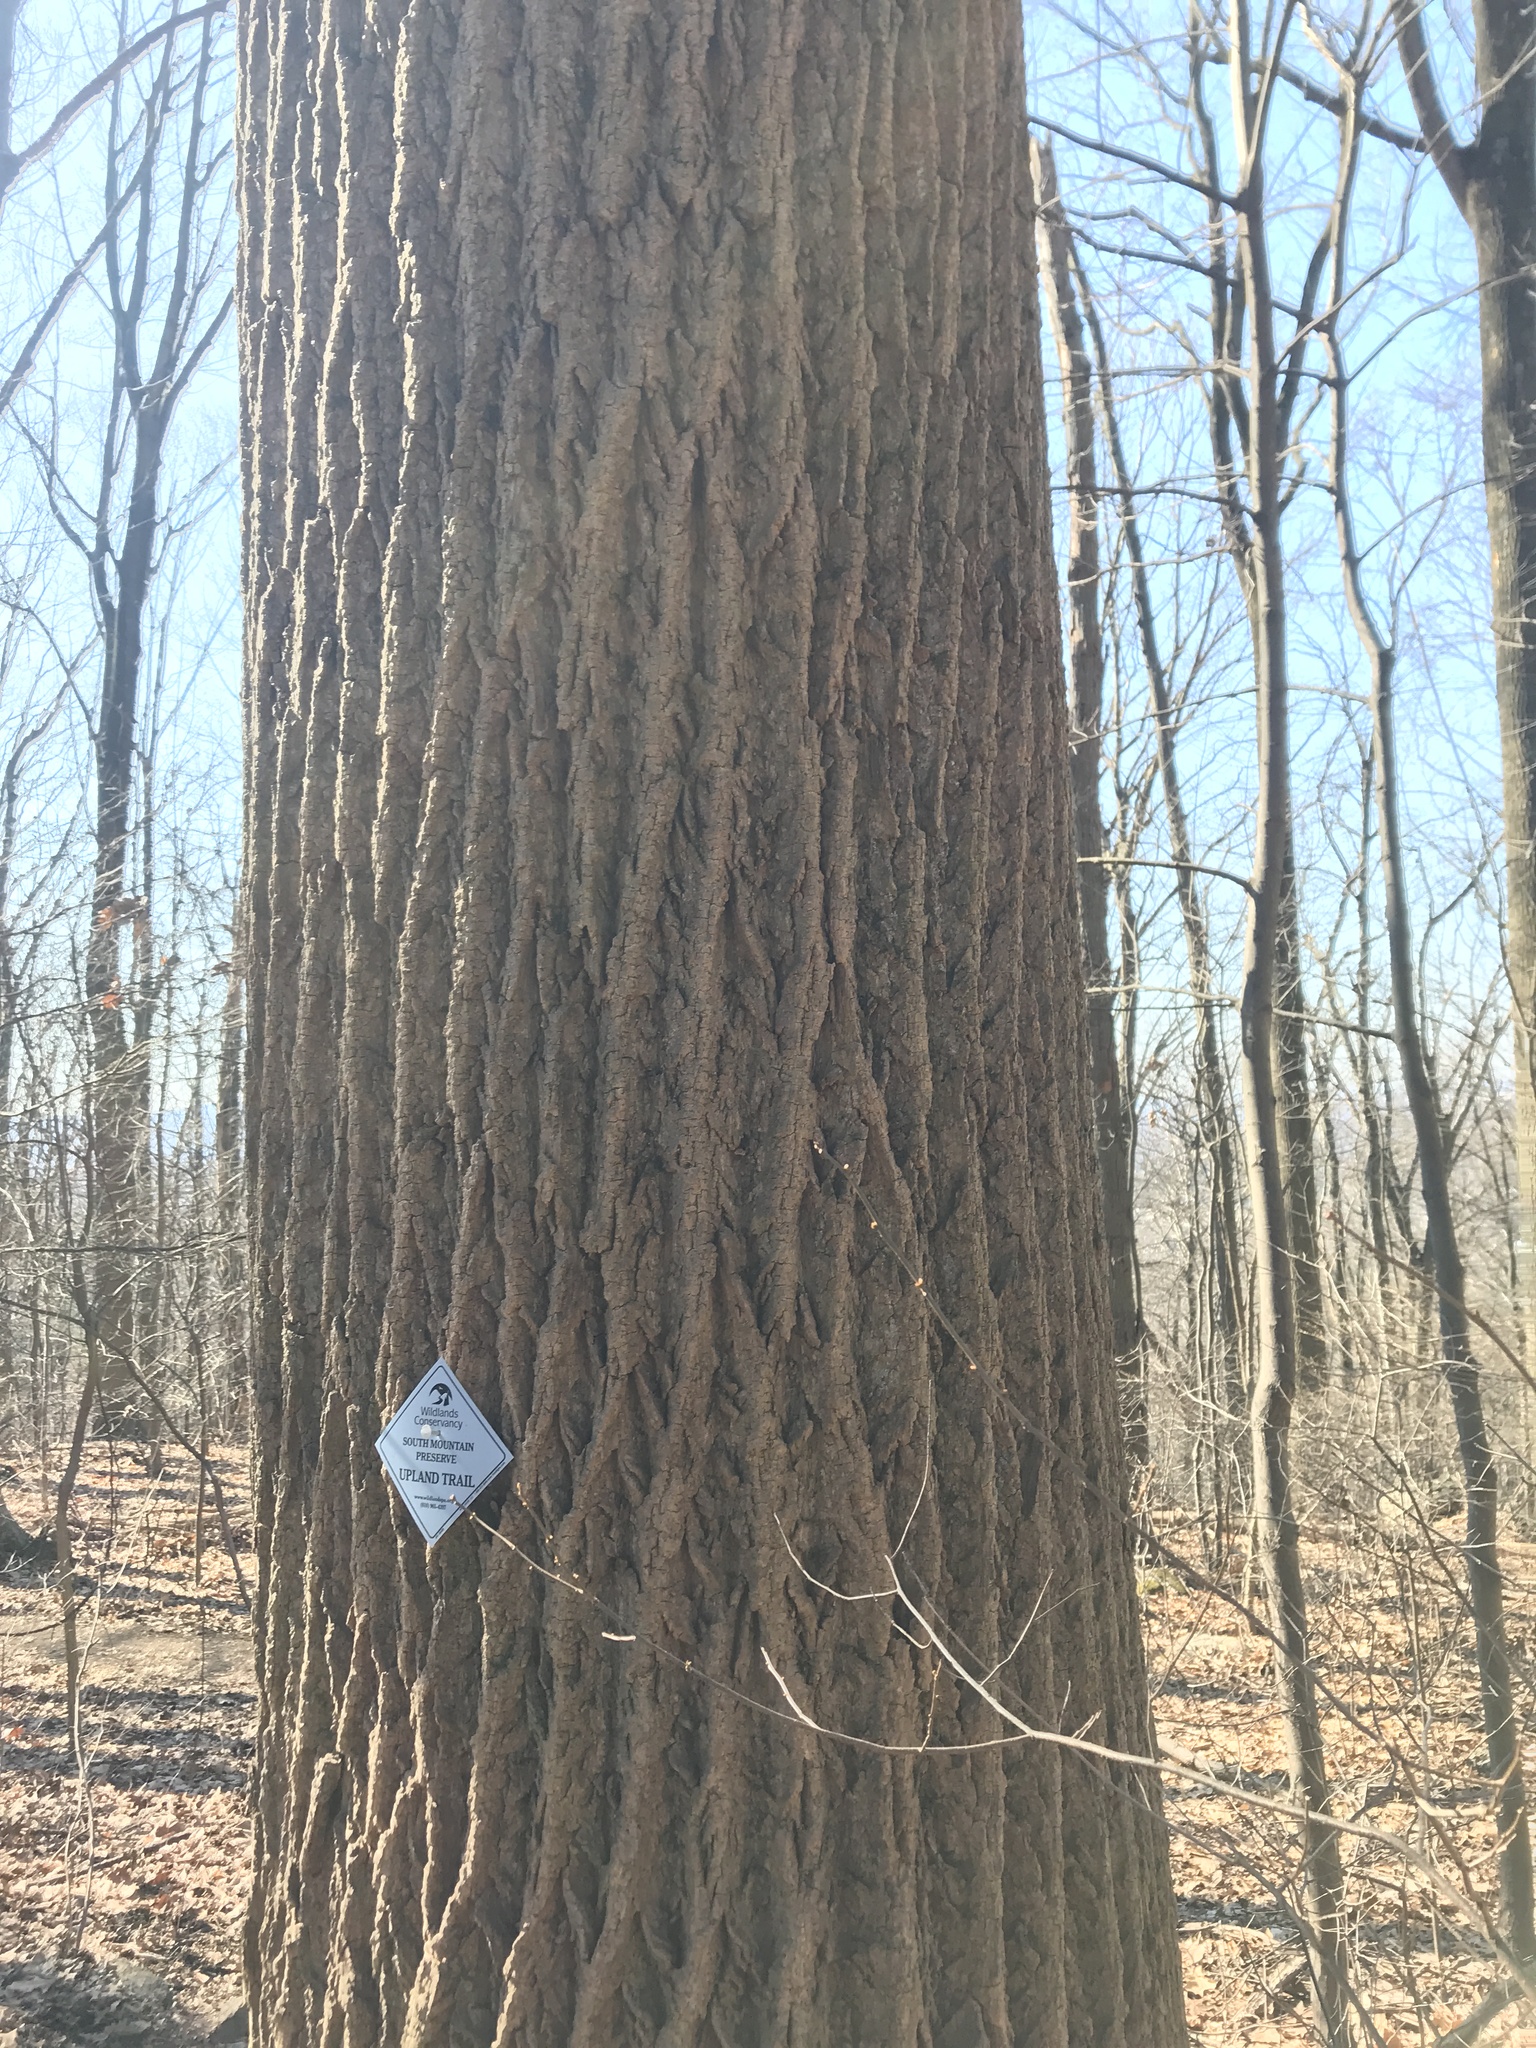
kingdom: Plantae
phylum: Tracheophyta
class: Magnoliopsida
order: Magnoliales
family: Magnoliaceae
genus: Liriodendron
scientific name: Liriodendron tulipifera
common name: Tulip tree
